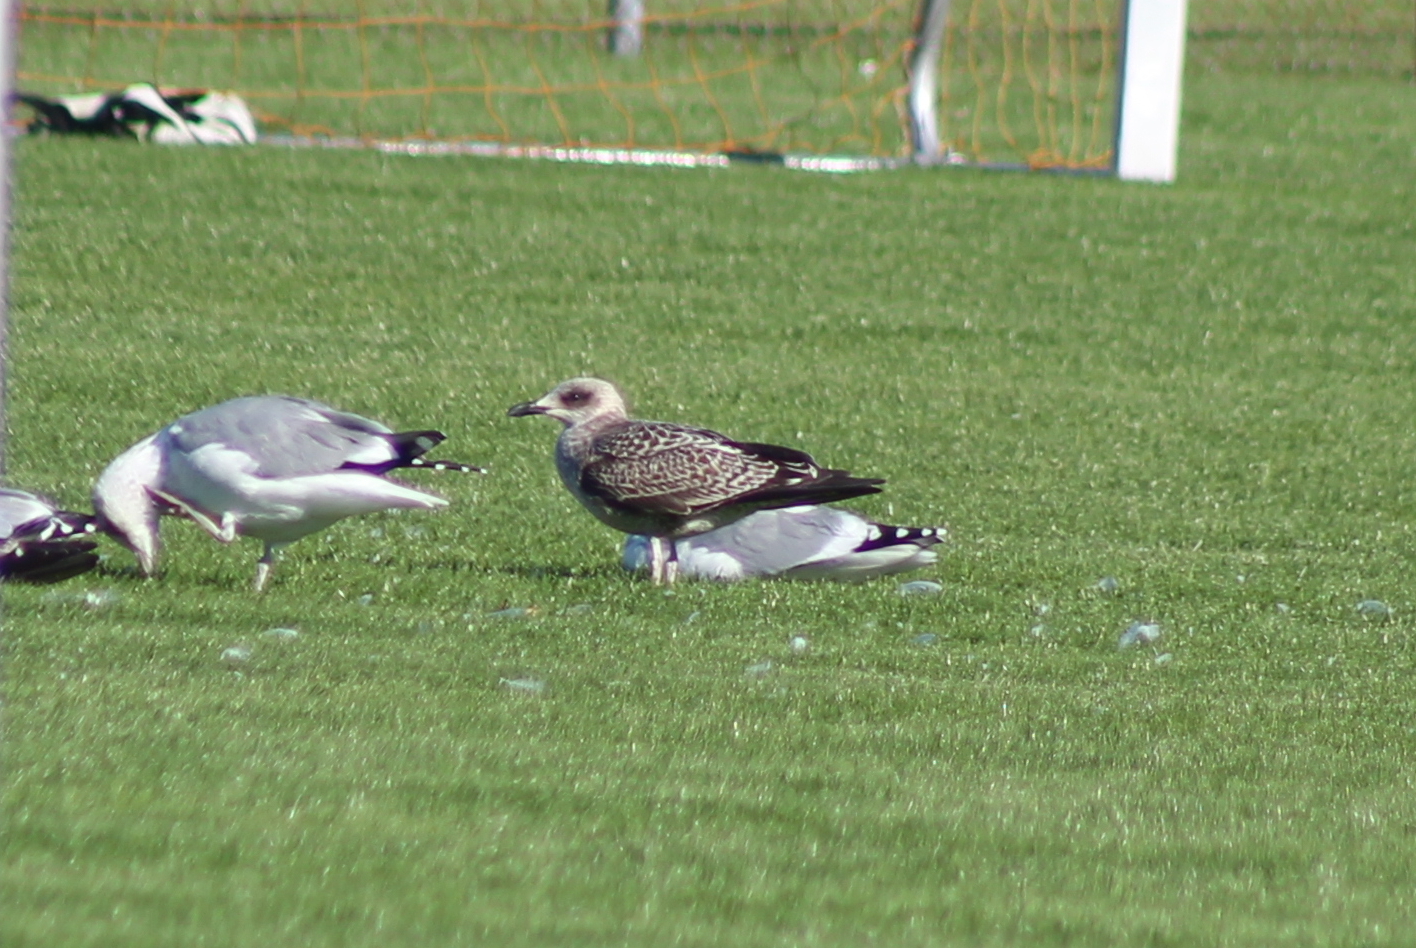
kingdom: Animalia
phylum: Chordata
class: Aves
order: Charadriiformes
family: Laridae
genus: Larus
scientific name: Larus fuscus
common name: Lesser black-backed gull
